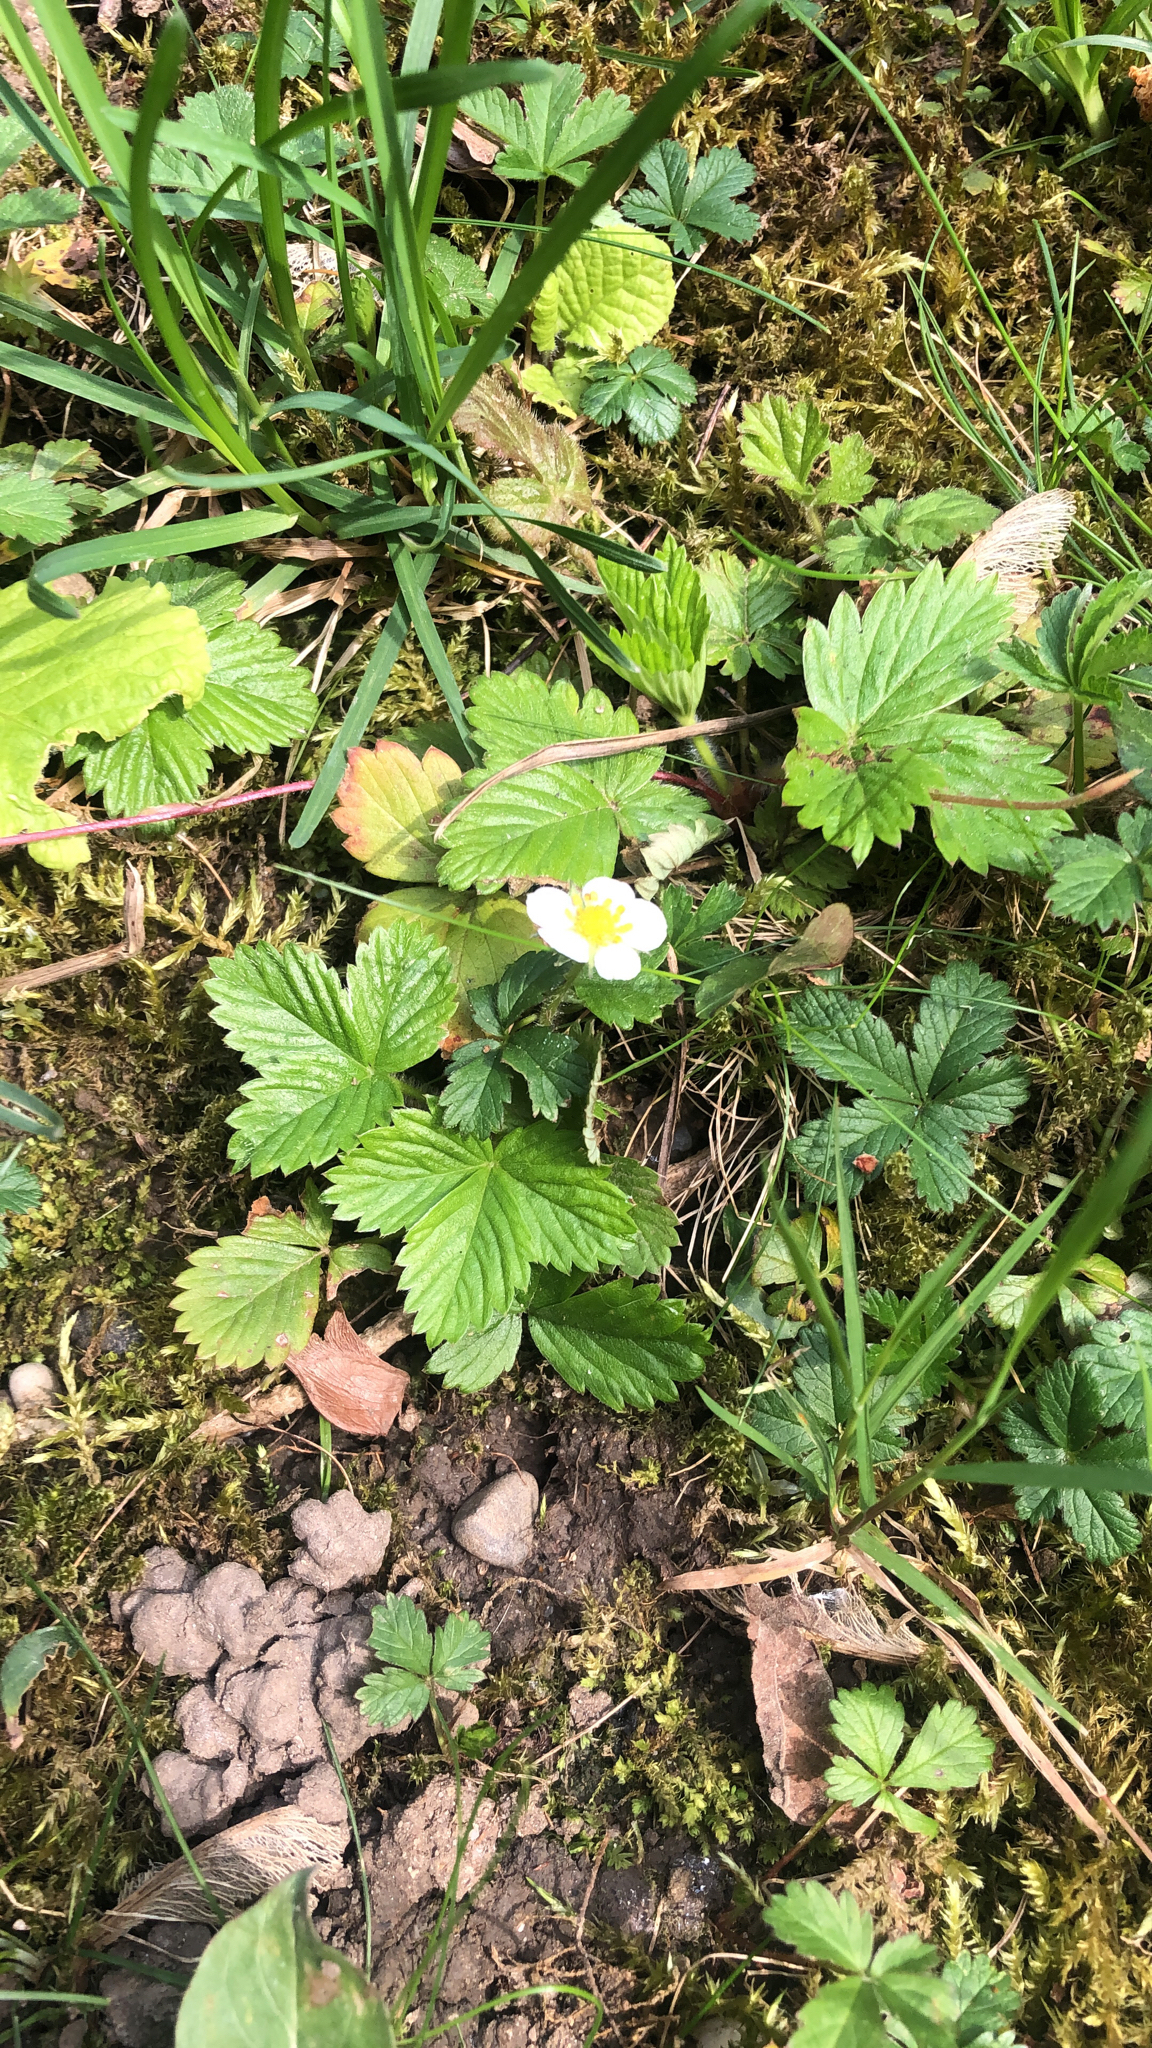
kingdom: Plantae
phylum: Tracheophyta
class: Magnoliopsida
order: Rosales
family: Rosaceae
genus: Fragaria
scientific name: Fragaria vesca
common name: Wild strawberry
